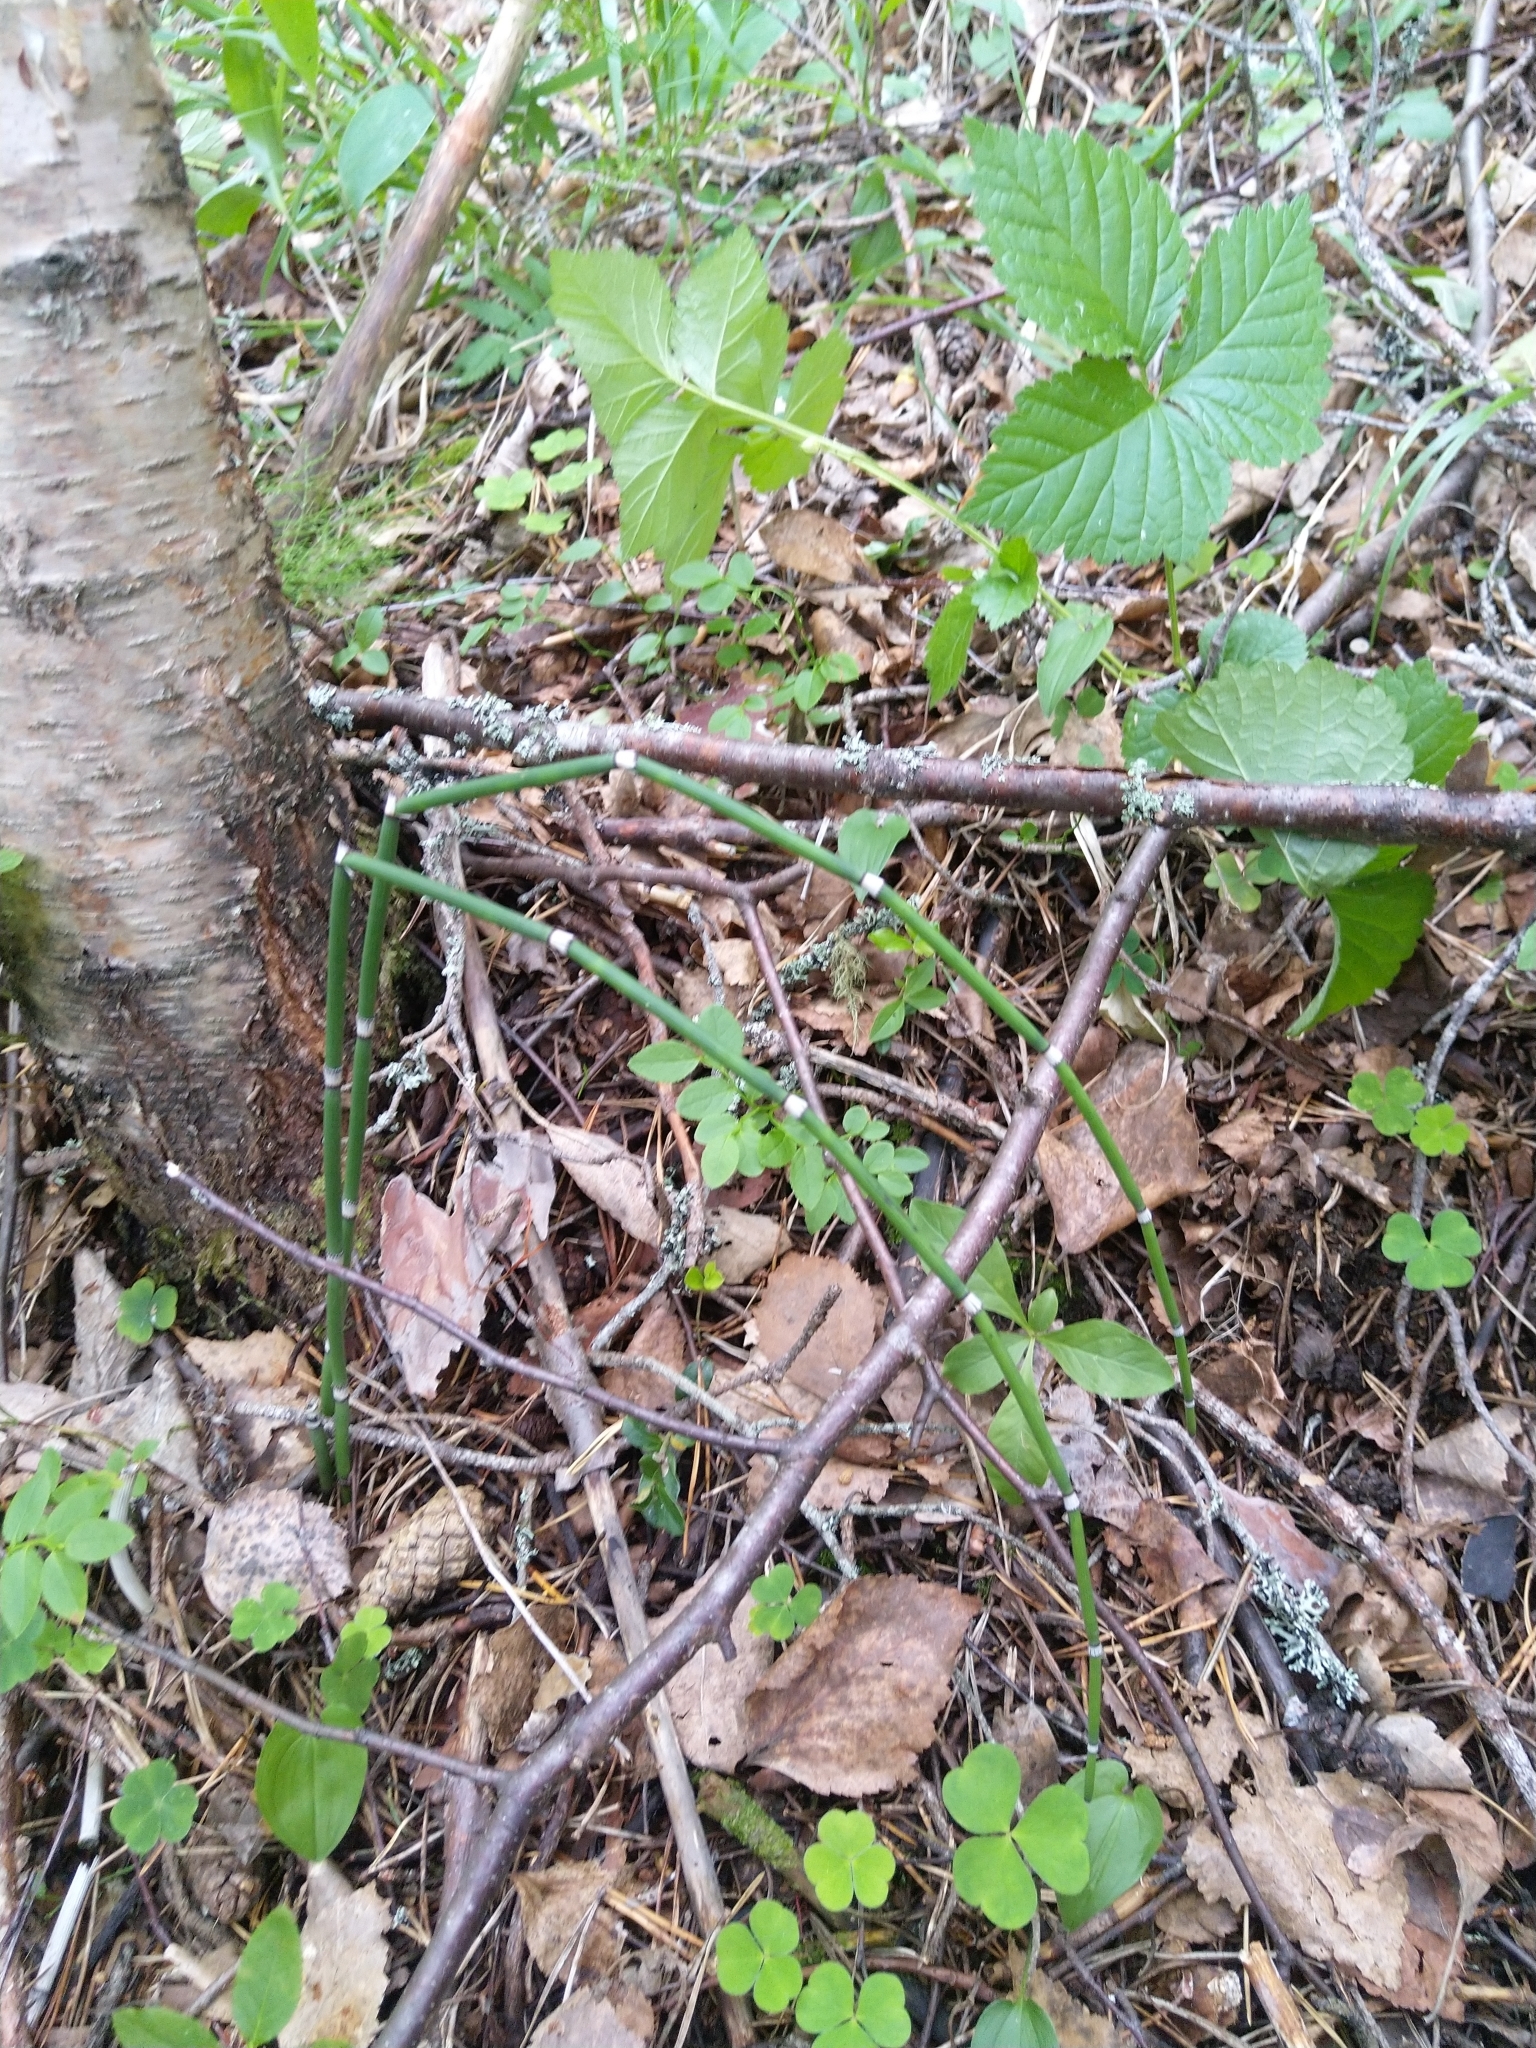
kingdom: Plantae
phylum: Tracheophyta
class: Polypodiopsida
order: Equisetales
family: Equisetaceae
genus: Equisetum
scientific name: Equisetum hyemale
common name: Rough horsetail
